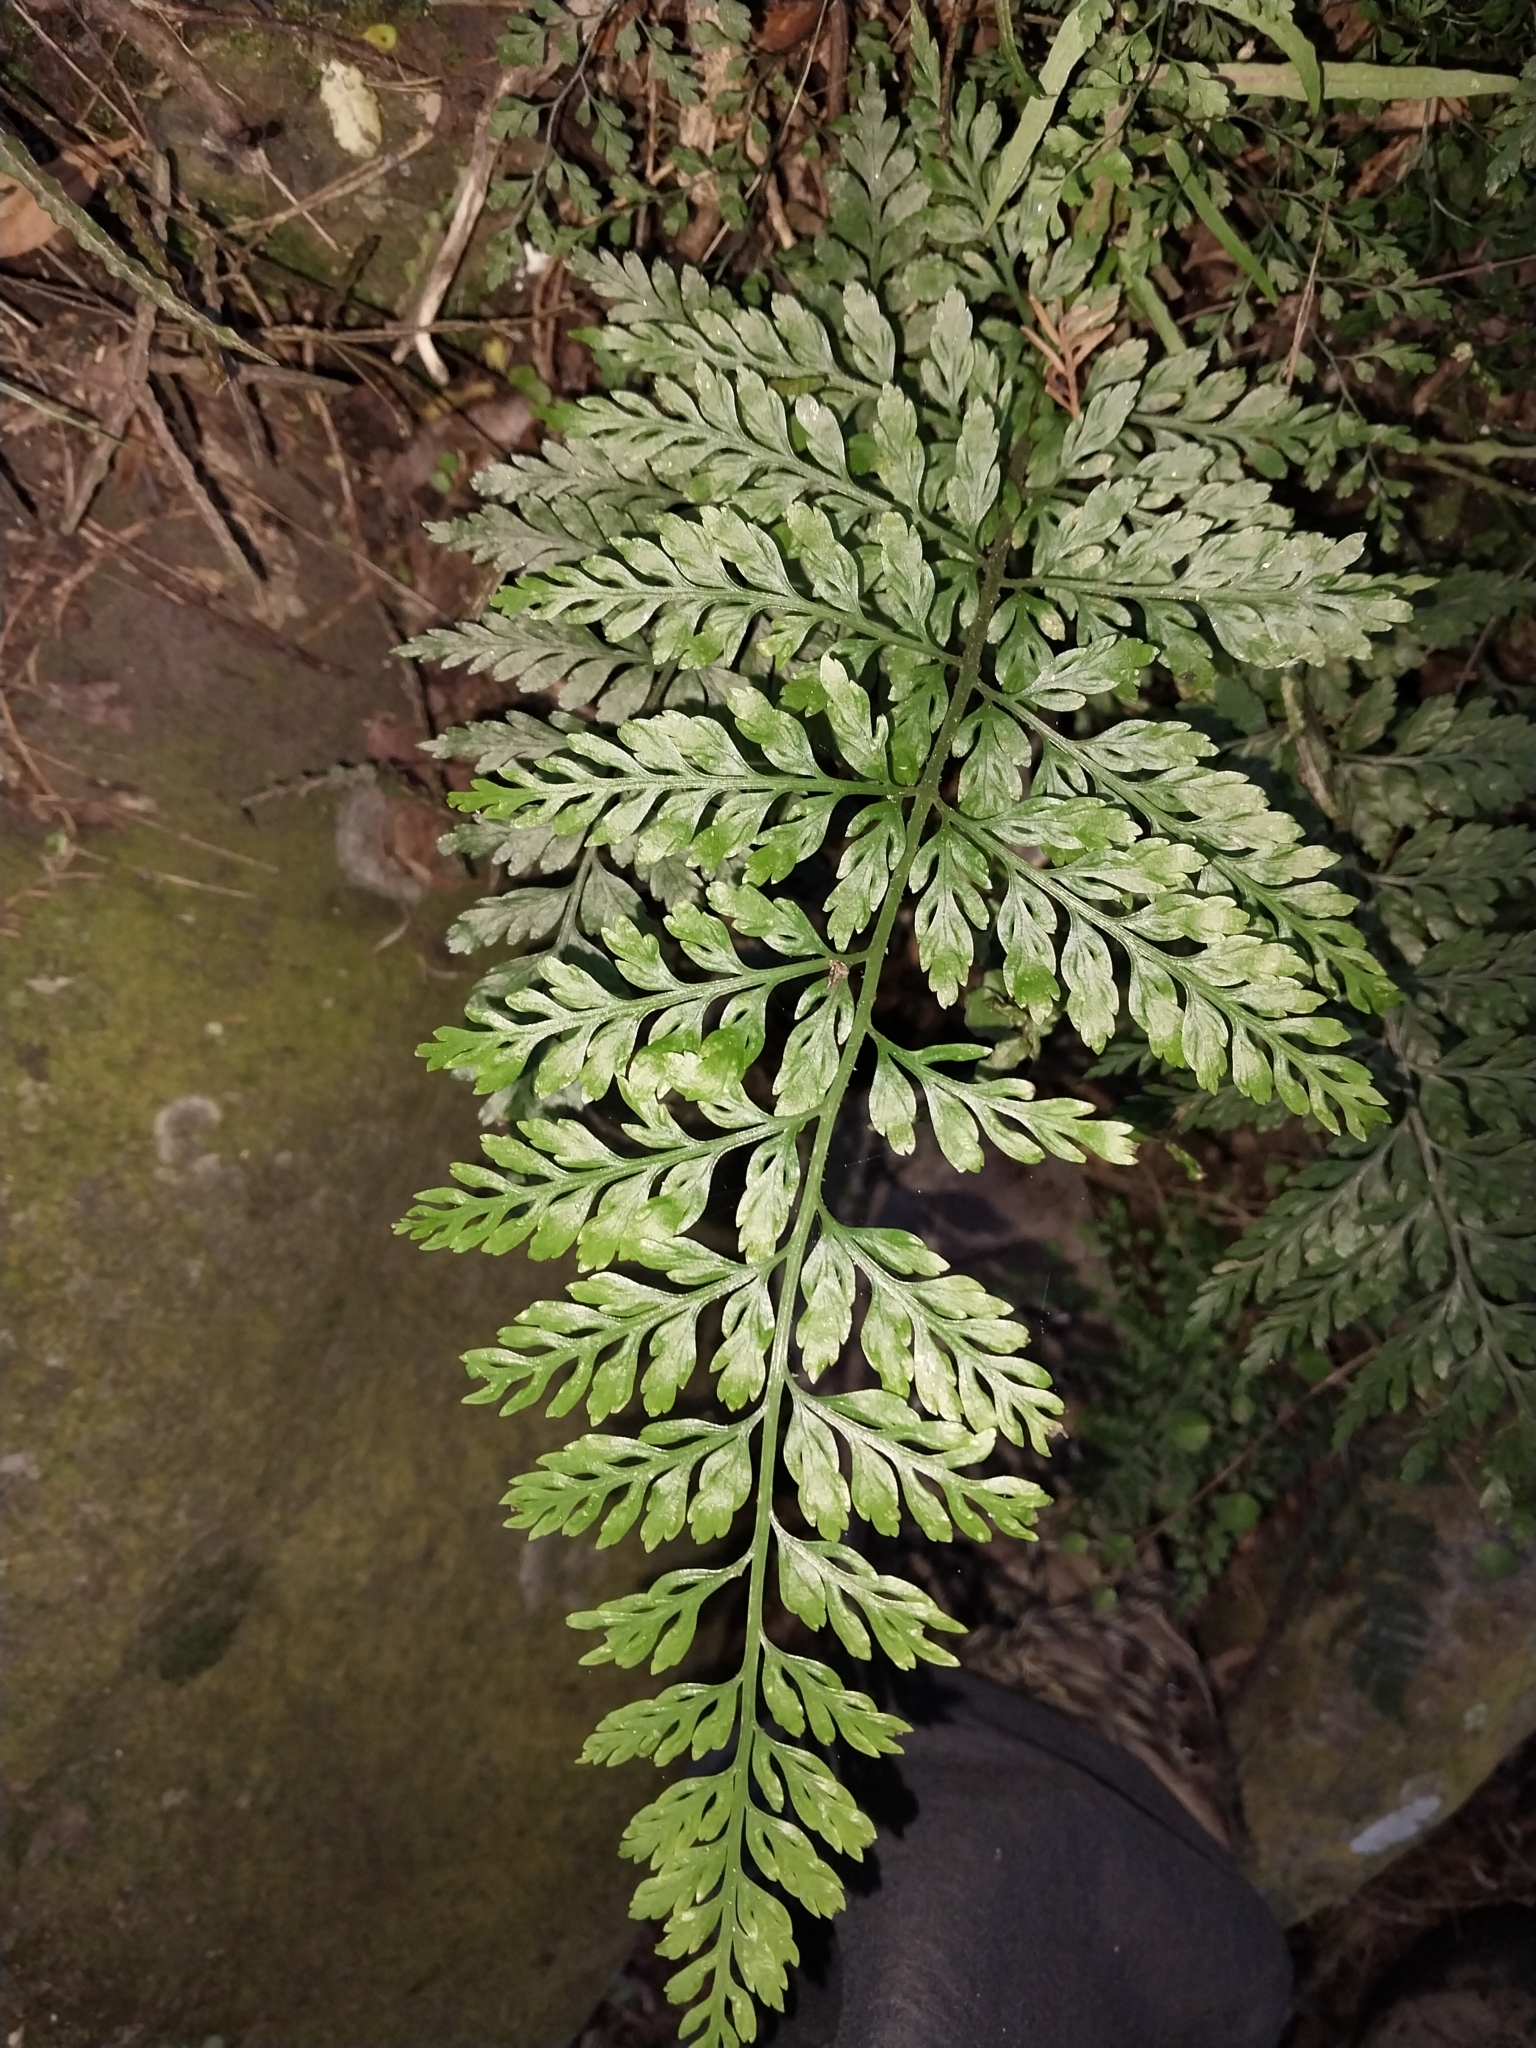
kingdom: Plantae
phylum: Tracheophyta
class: Polypodiopsida
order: Polypodiales
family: Aspleniaceae
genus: Asplenium
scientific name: Asplenium
